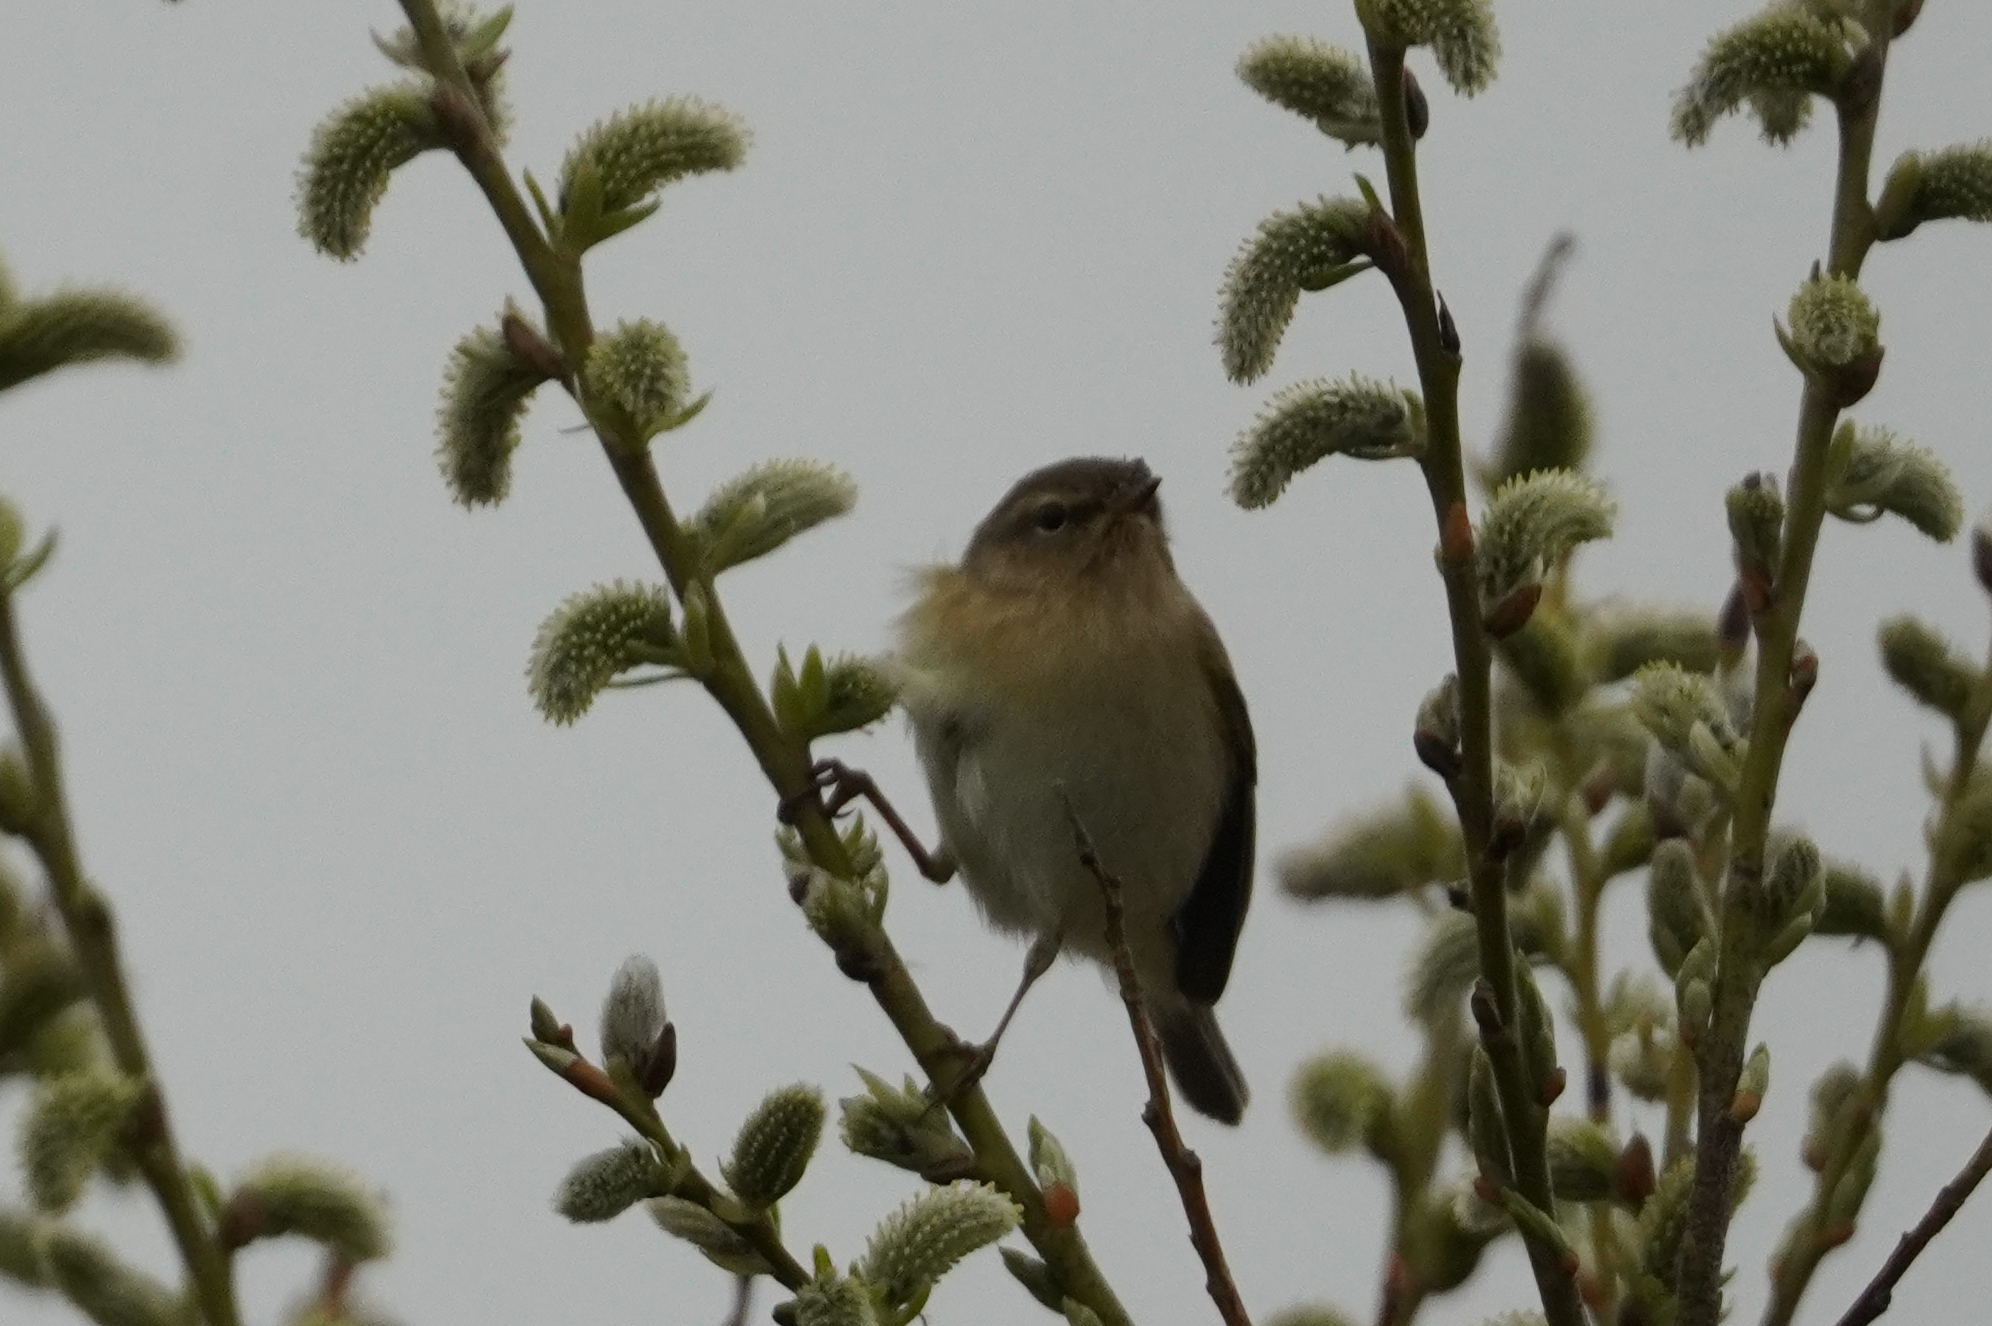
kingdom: Animalia
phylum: Chordata
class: Aves
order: Passeriformes
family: Phylloscopidae
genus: Phylloscopus
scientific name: Phylloscopus collybita
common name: Common chiffchaff
